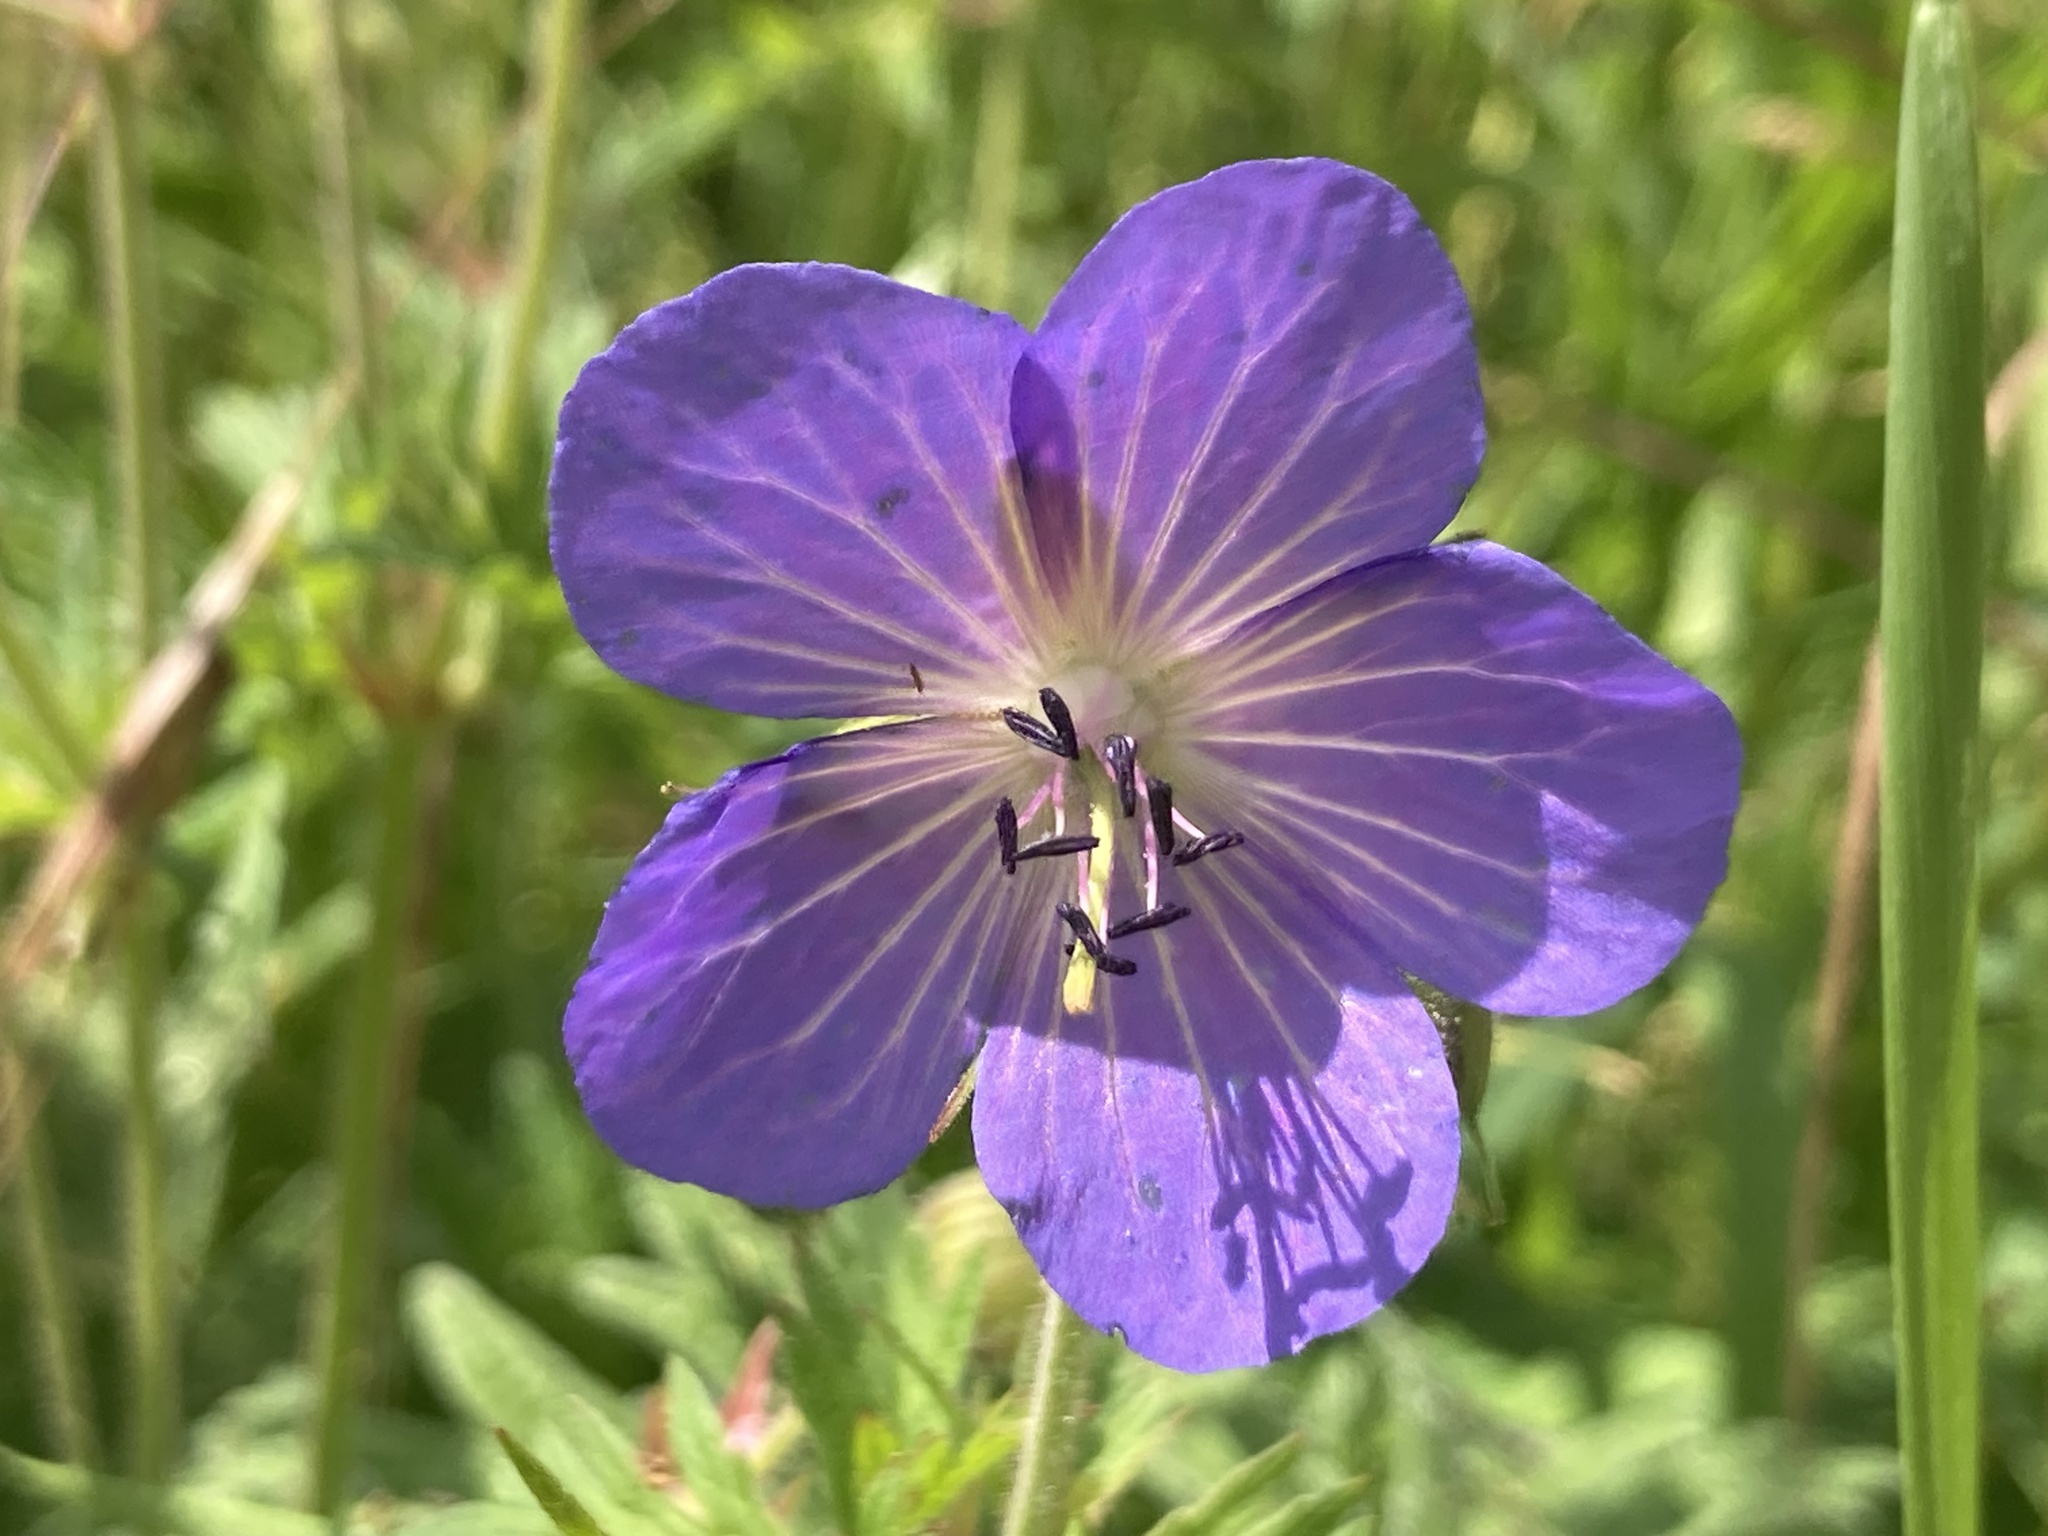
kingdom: Plantae
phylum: Tracheophyta
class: Magnoliopsida
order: Geraniales
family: Geraniaceae
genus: Geranium
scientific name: Geranium pratense
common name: Meadow crane's-bill
